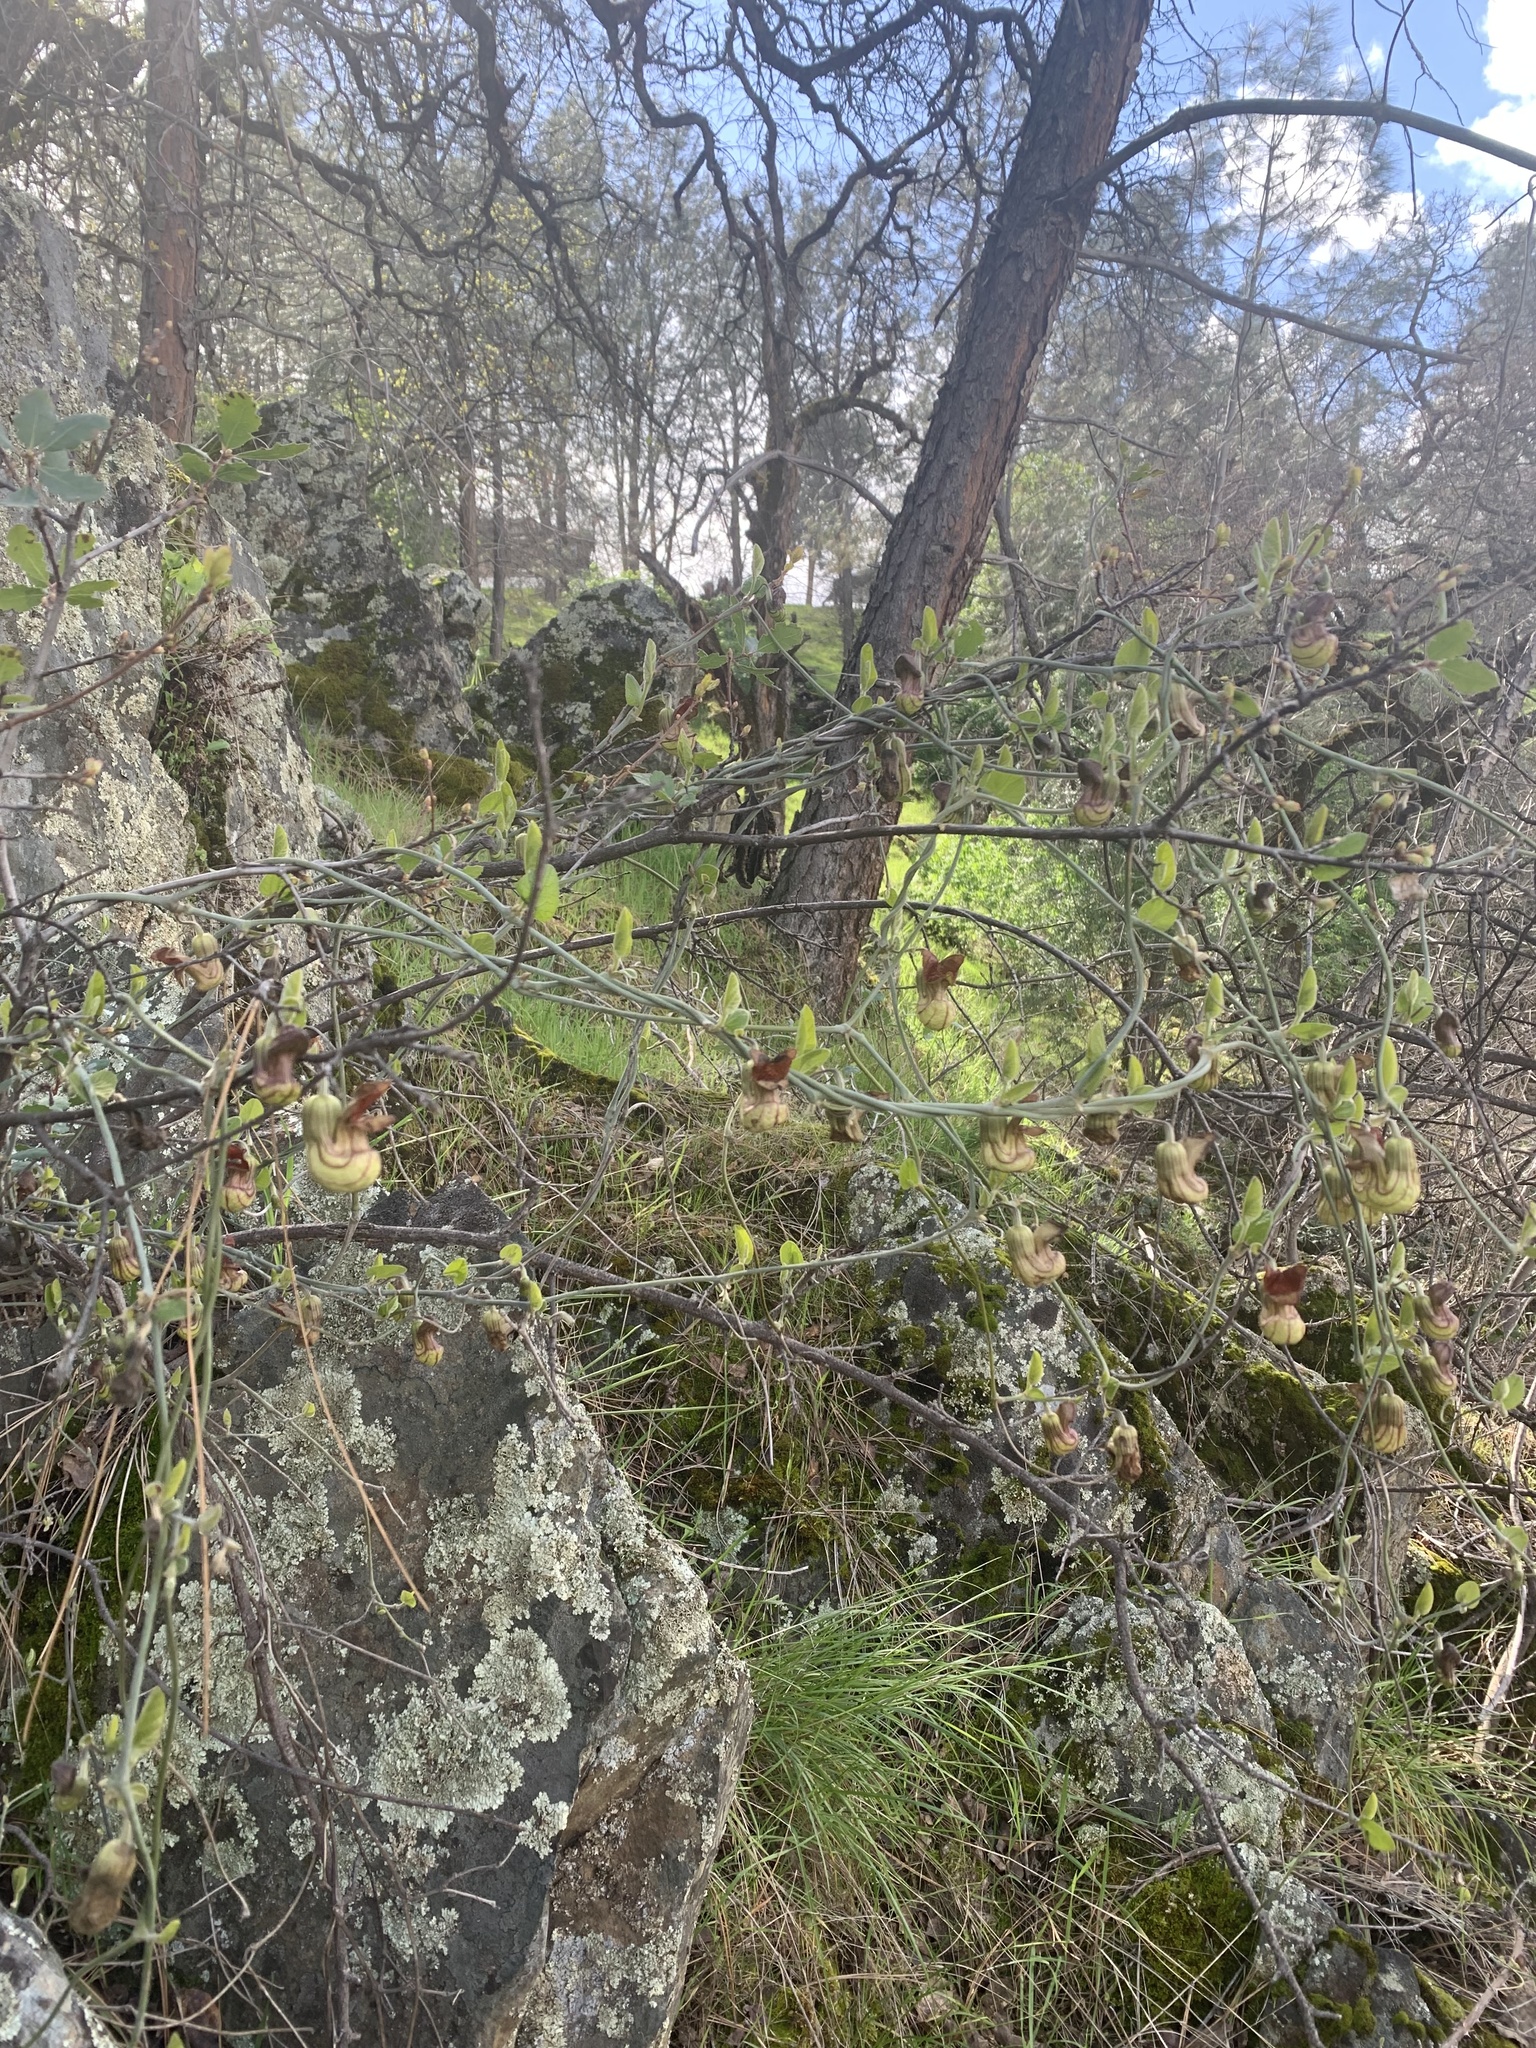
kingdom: Plantae
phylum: Tracheophyta
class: Magnoliopsida
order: Piperales
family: Aristolochiaceae
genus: Isotrema
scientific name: Isotrema californicum
